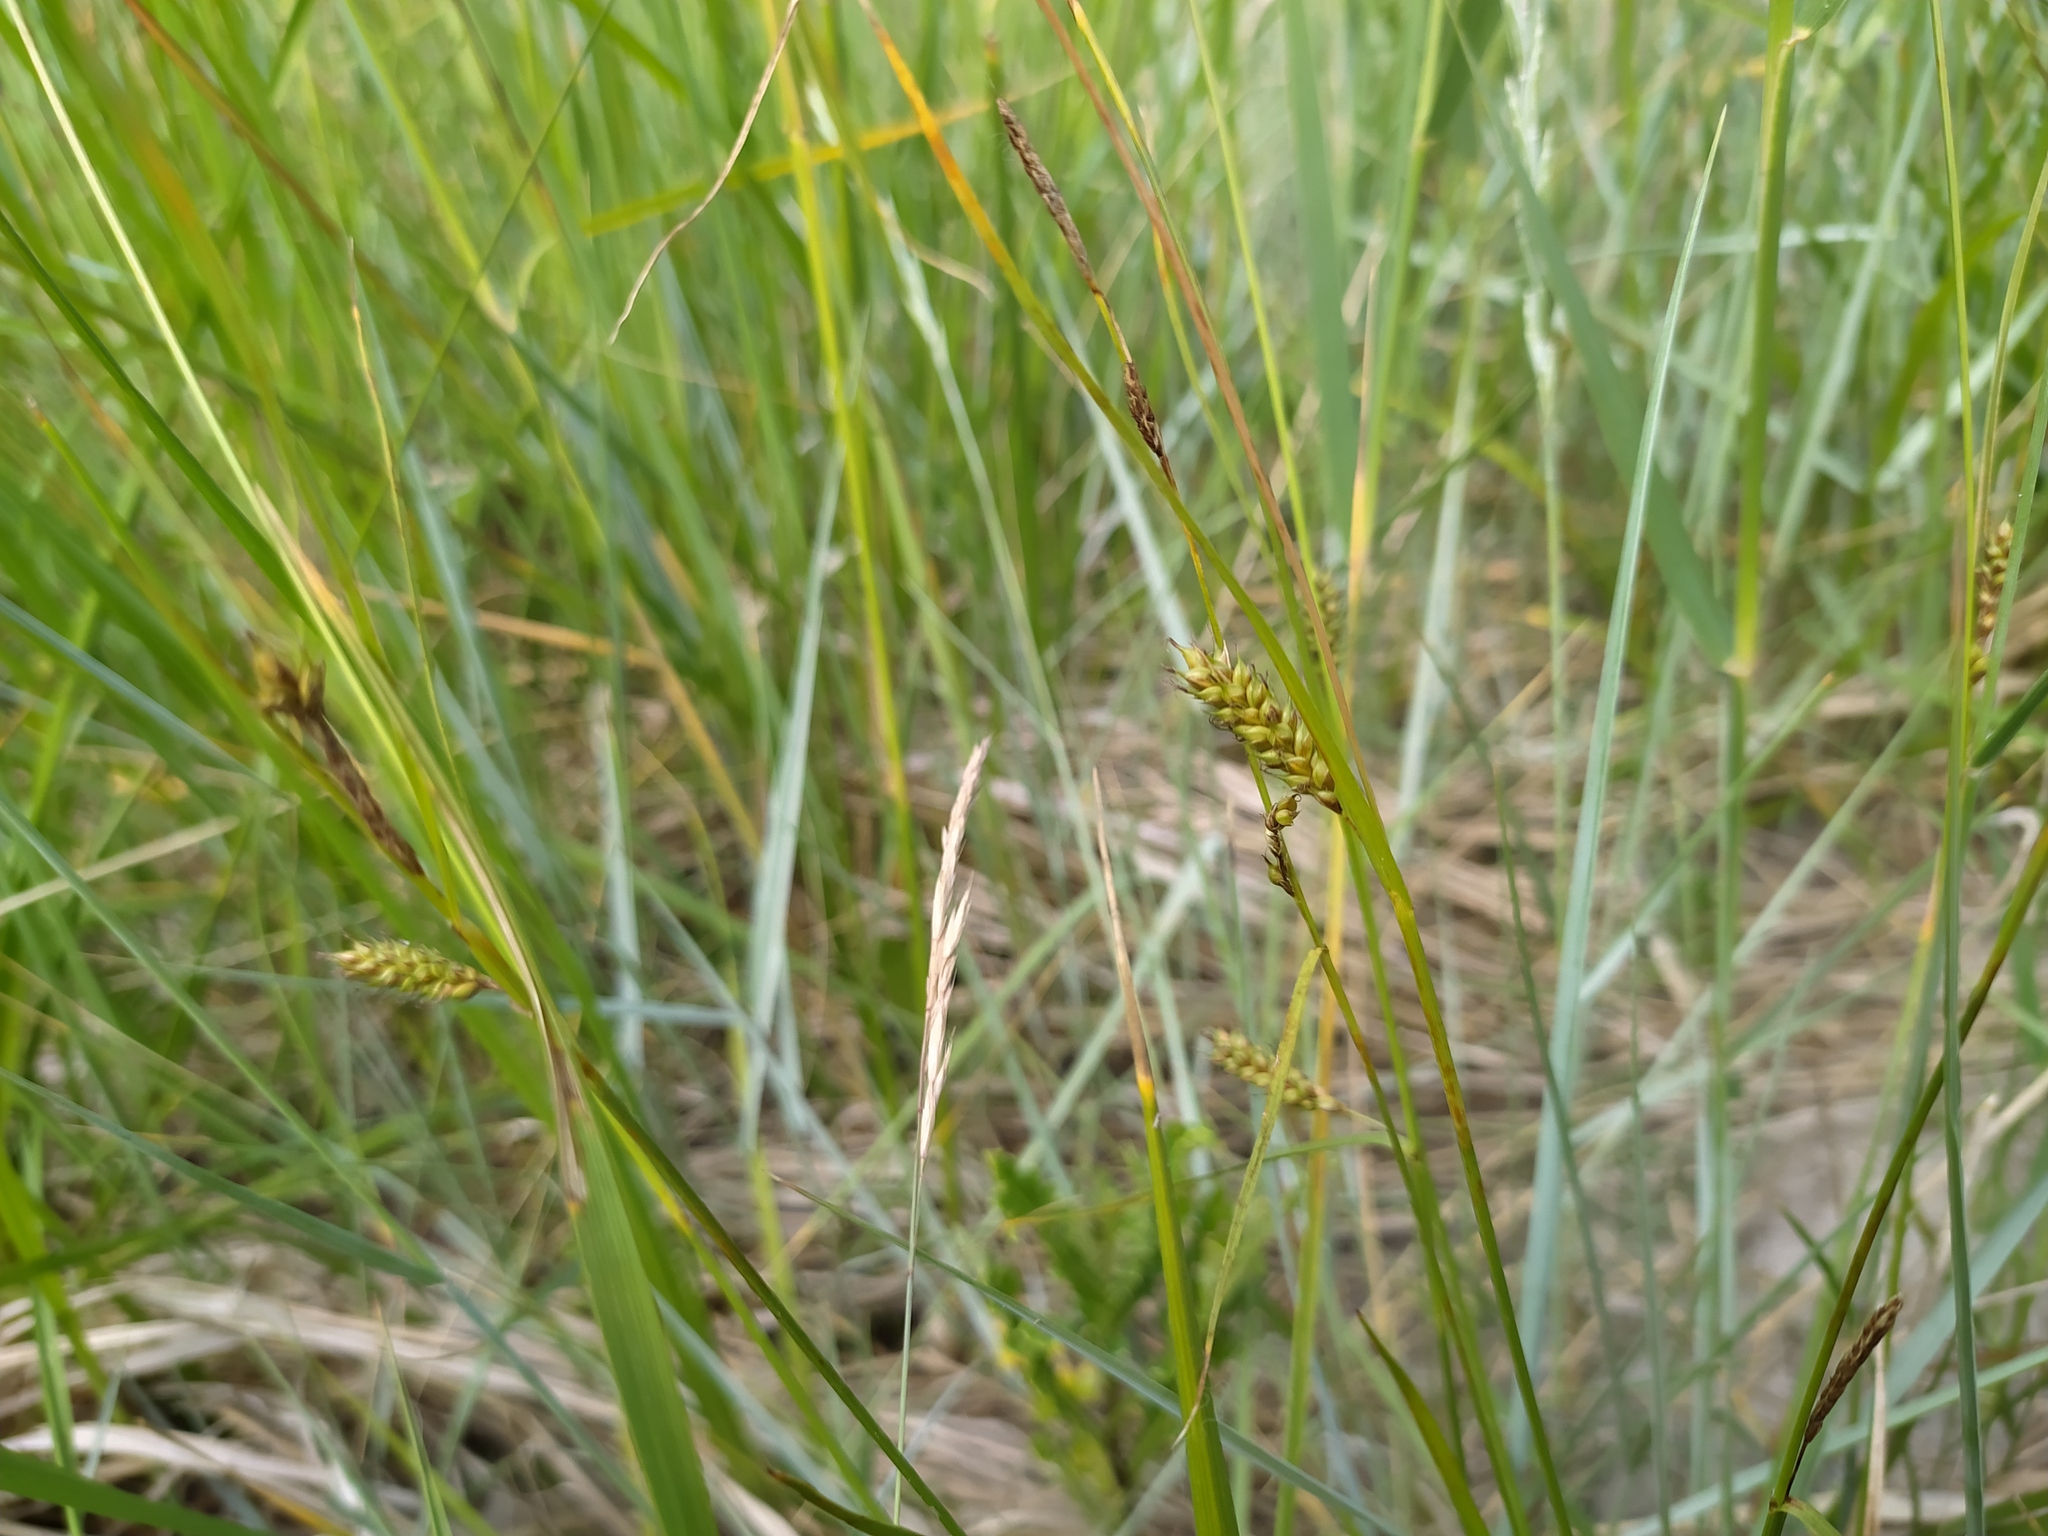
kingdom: Plantae
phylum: Tracheophyta
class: Liliopsida
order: Poales
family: Cyperaceae
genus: Carex
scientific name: Carex distans
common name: Distant sedge
